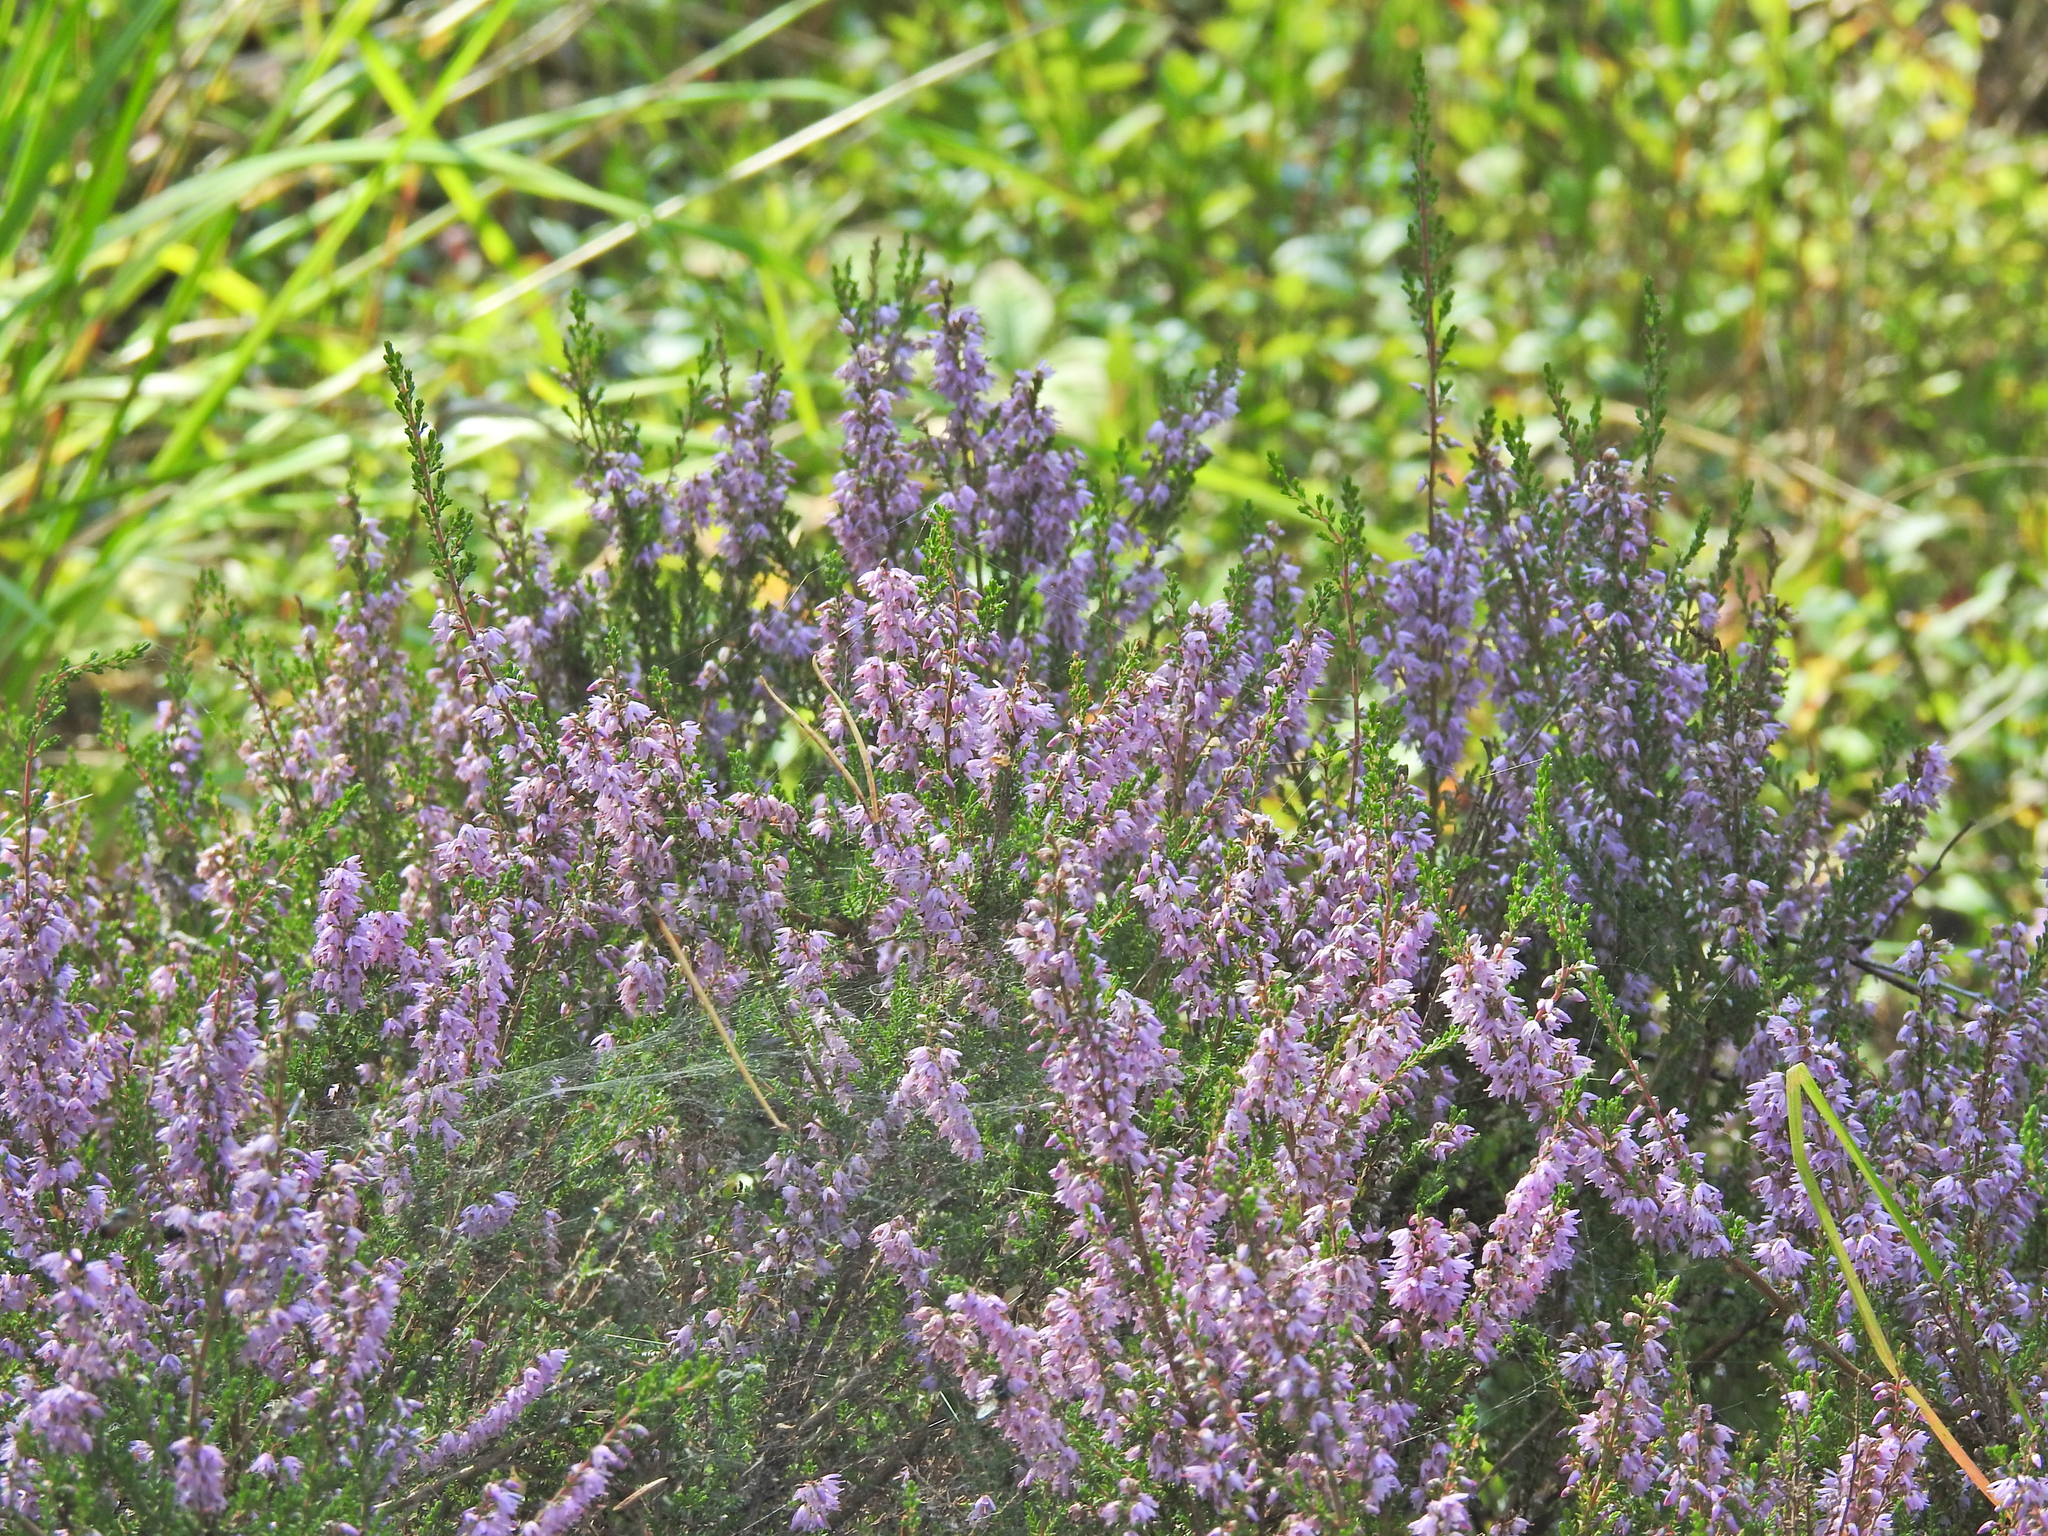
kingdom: Plantae
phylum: Tracheophyta
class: Magnoliopsida
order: Ericales
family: Ericaceae
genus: Calluna
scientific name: Calluna vulgaris
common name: Heather
